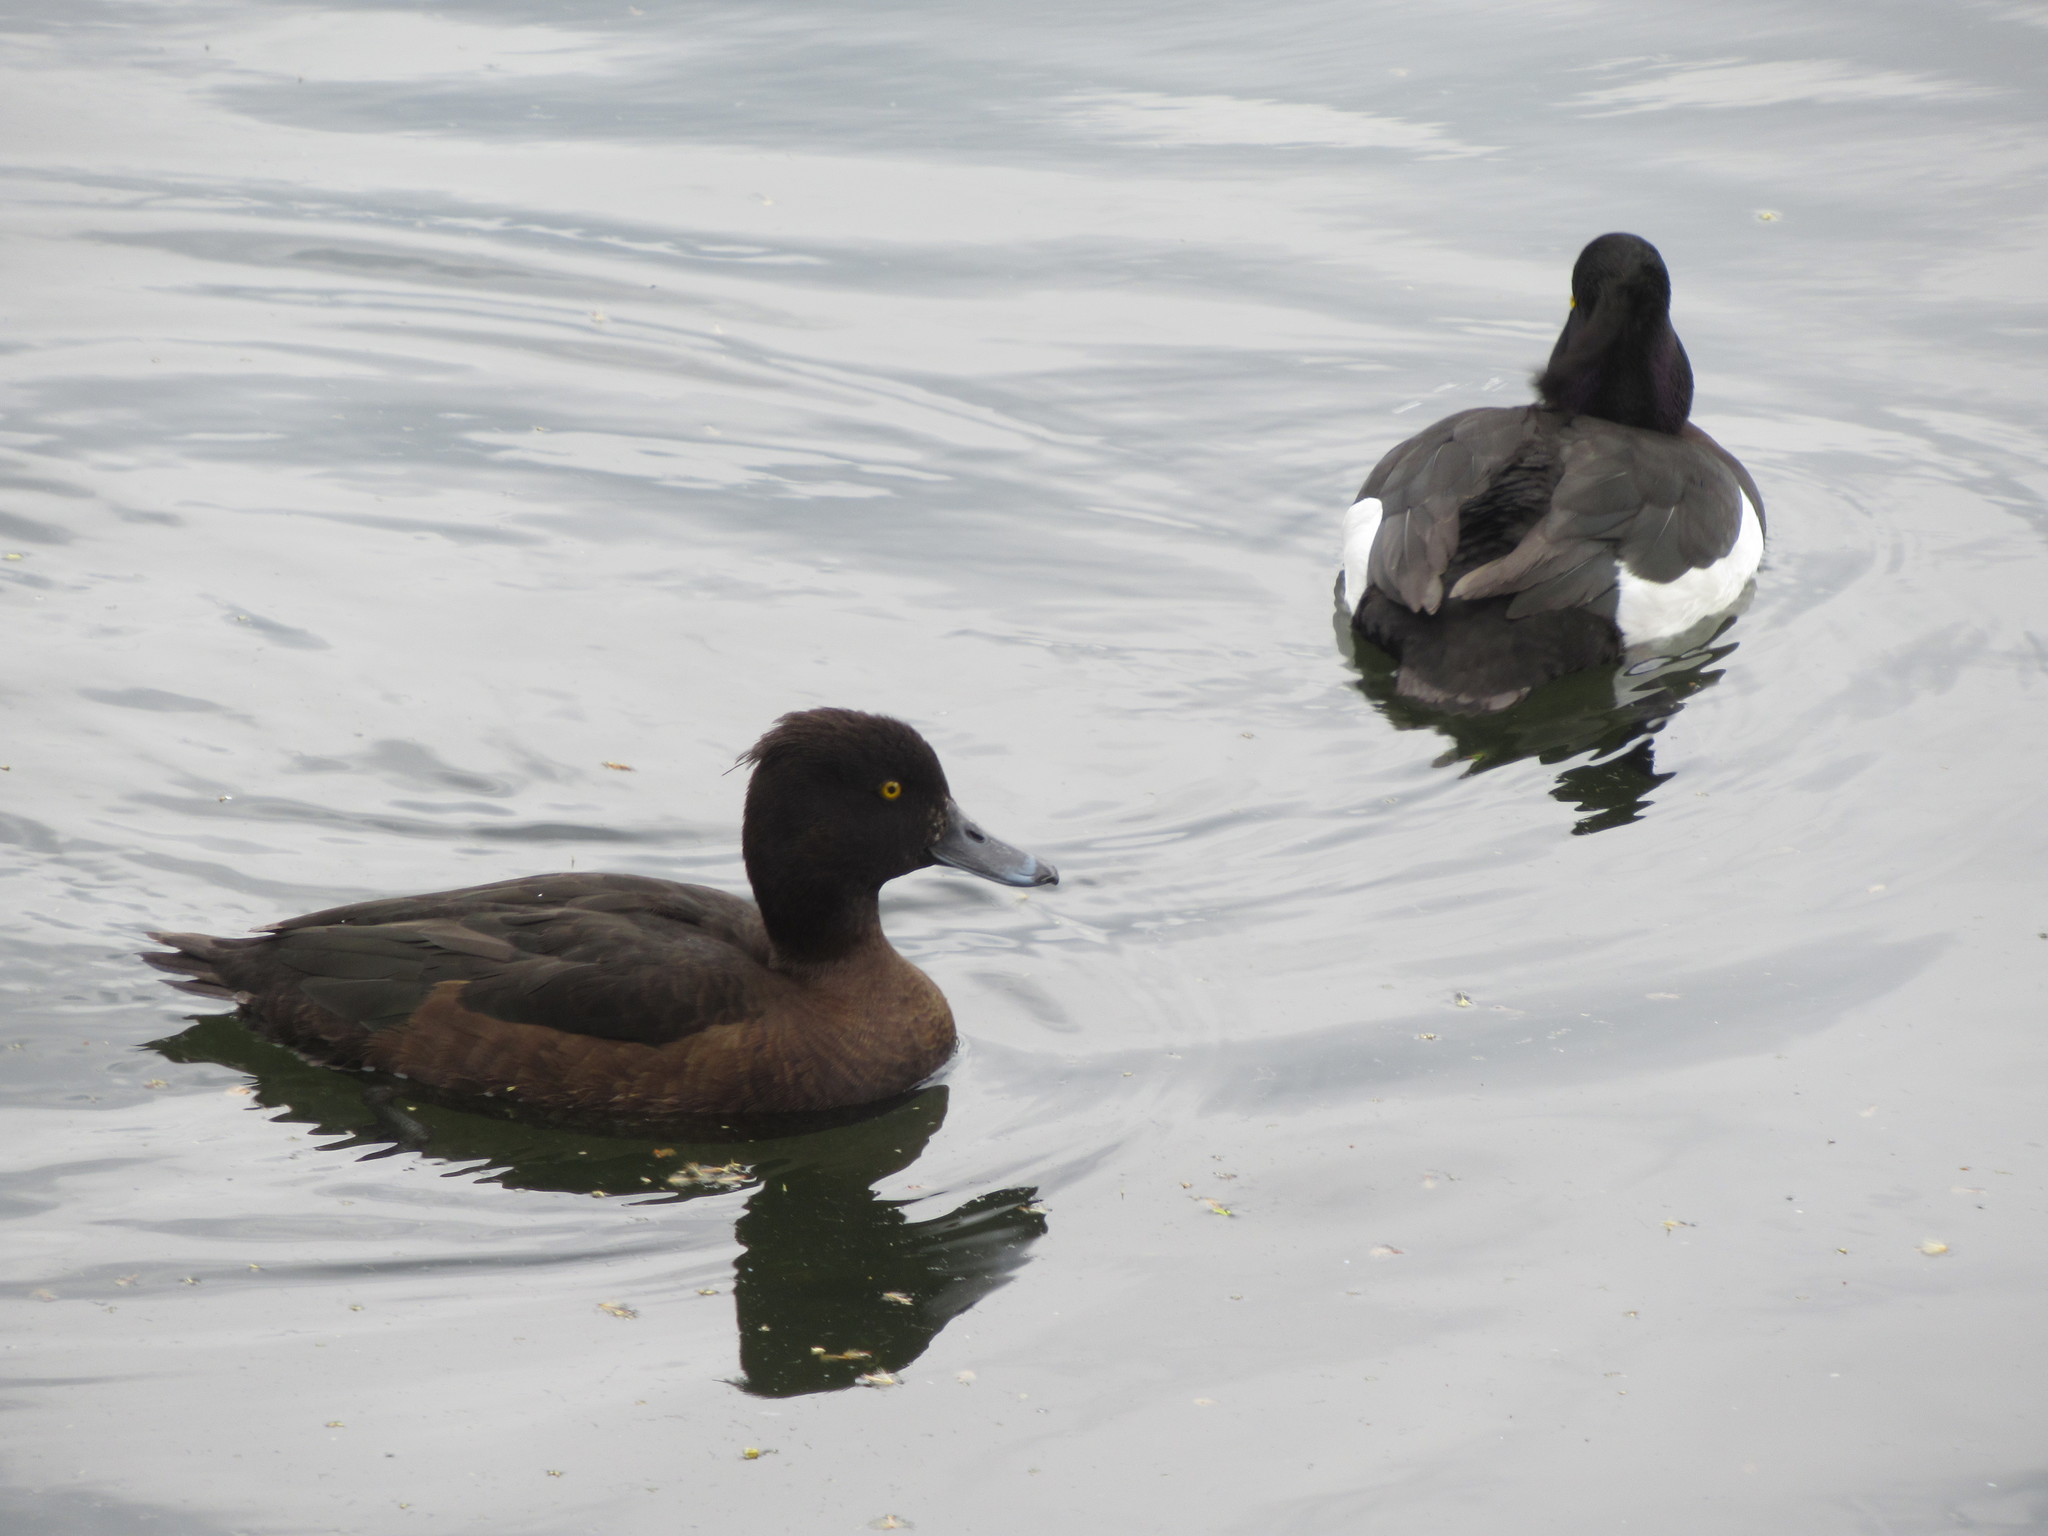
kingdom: Animalia
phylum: Chordata
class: Aves
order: Anseriformes
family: Anatidae
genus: Aythya
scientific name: Aythya fuligula
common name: Tufted duck
